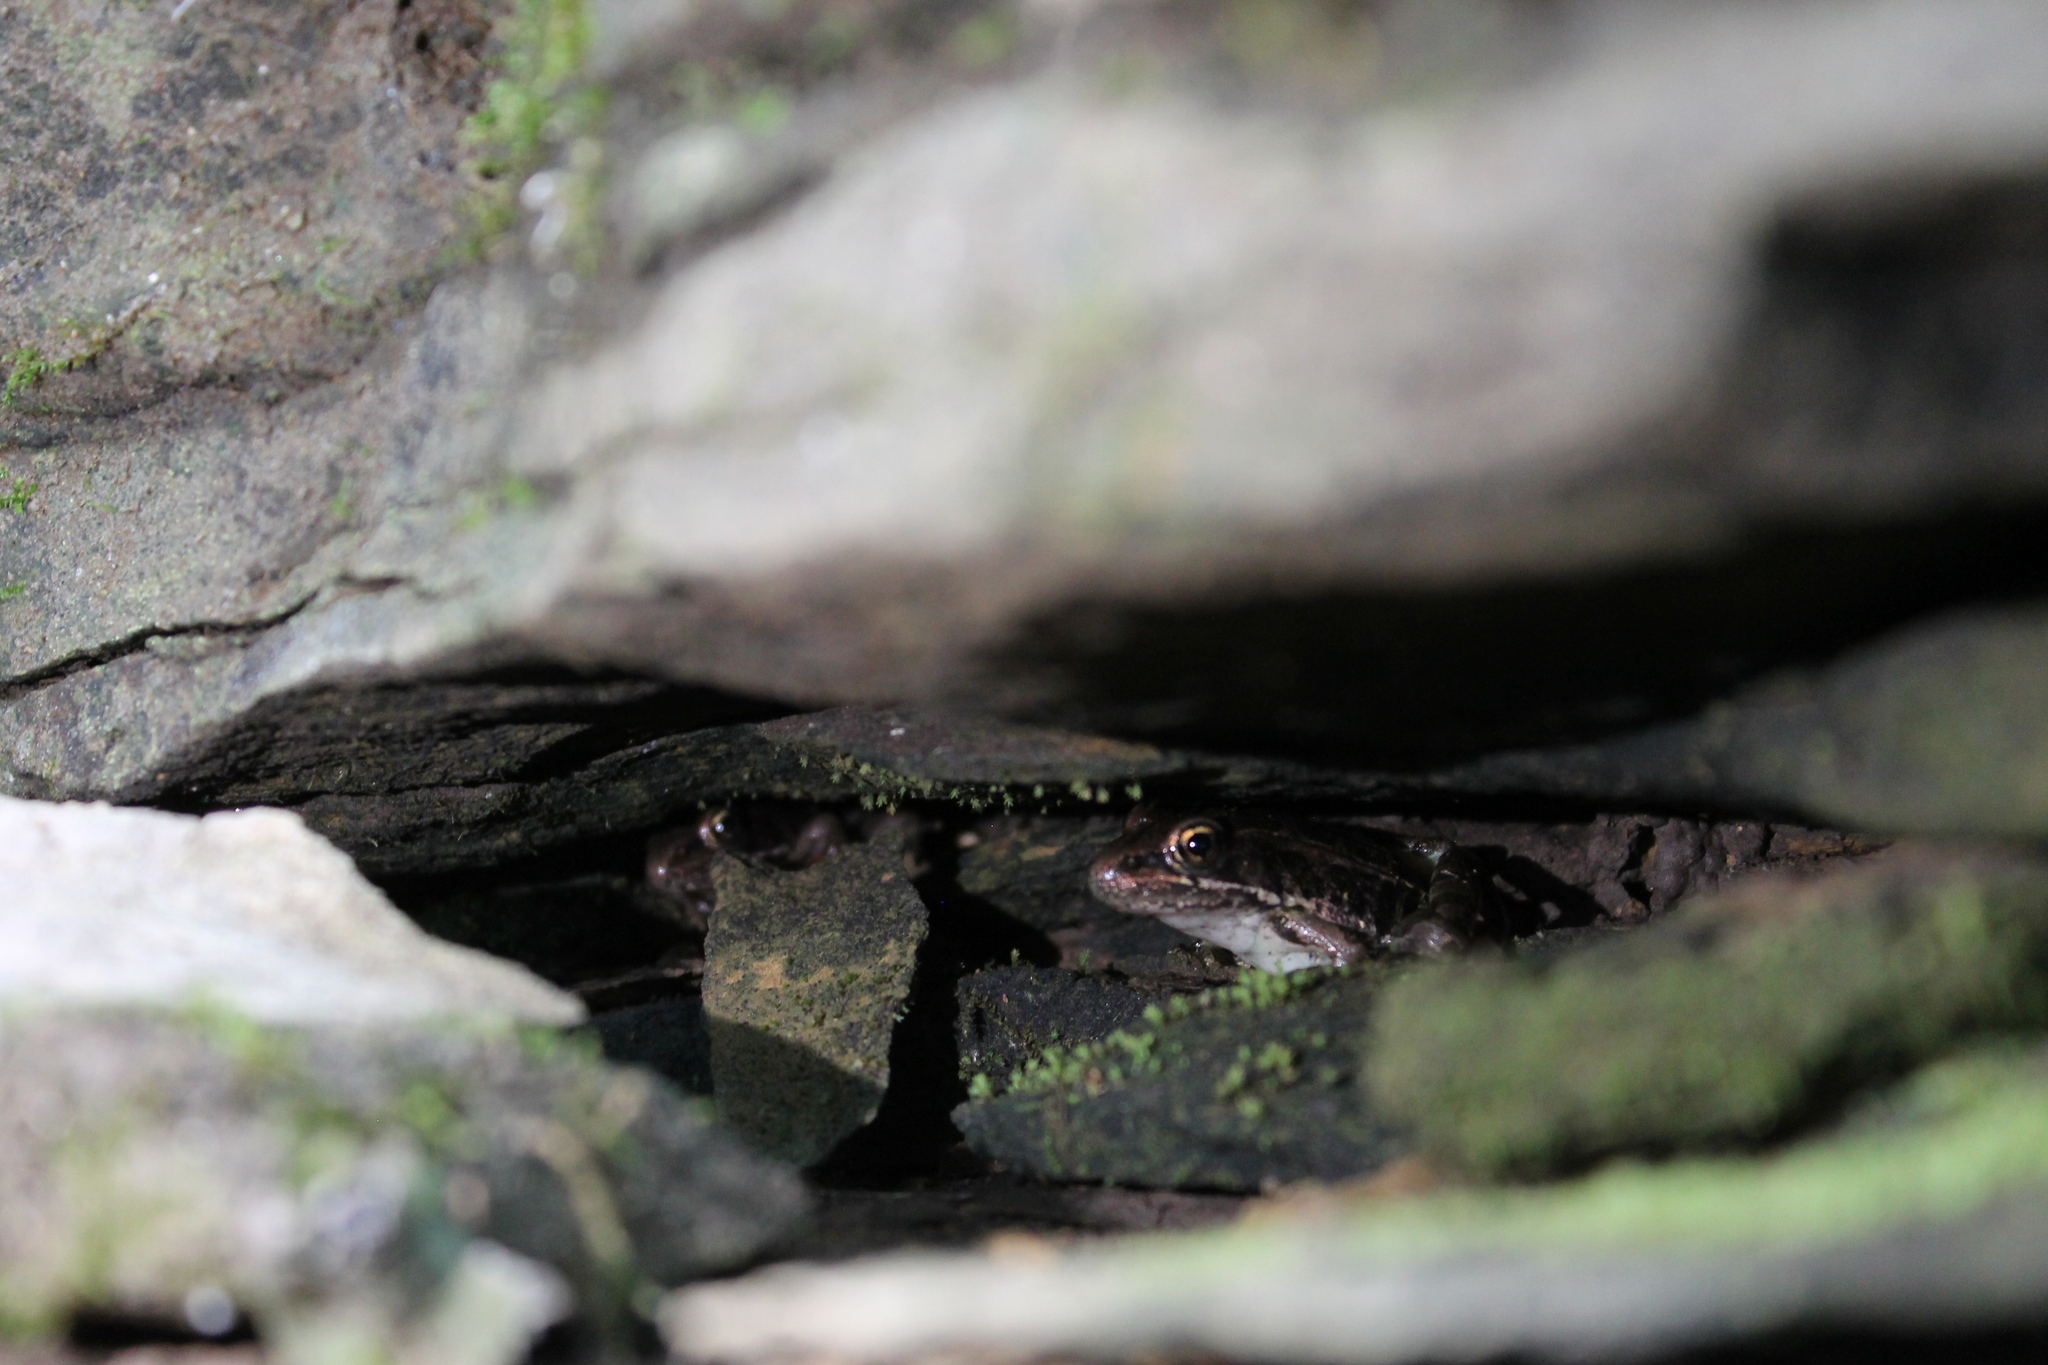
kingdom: Animalia
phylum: Chordata
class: Amphibia
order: Anura
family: Ranidae
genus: Lithobates
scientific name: Lithobates palustris
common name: Pickerel frog
